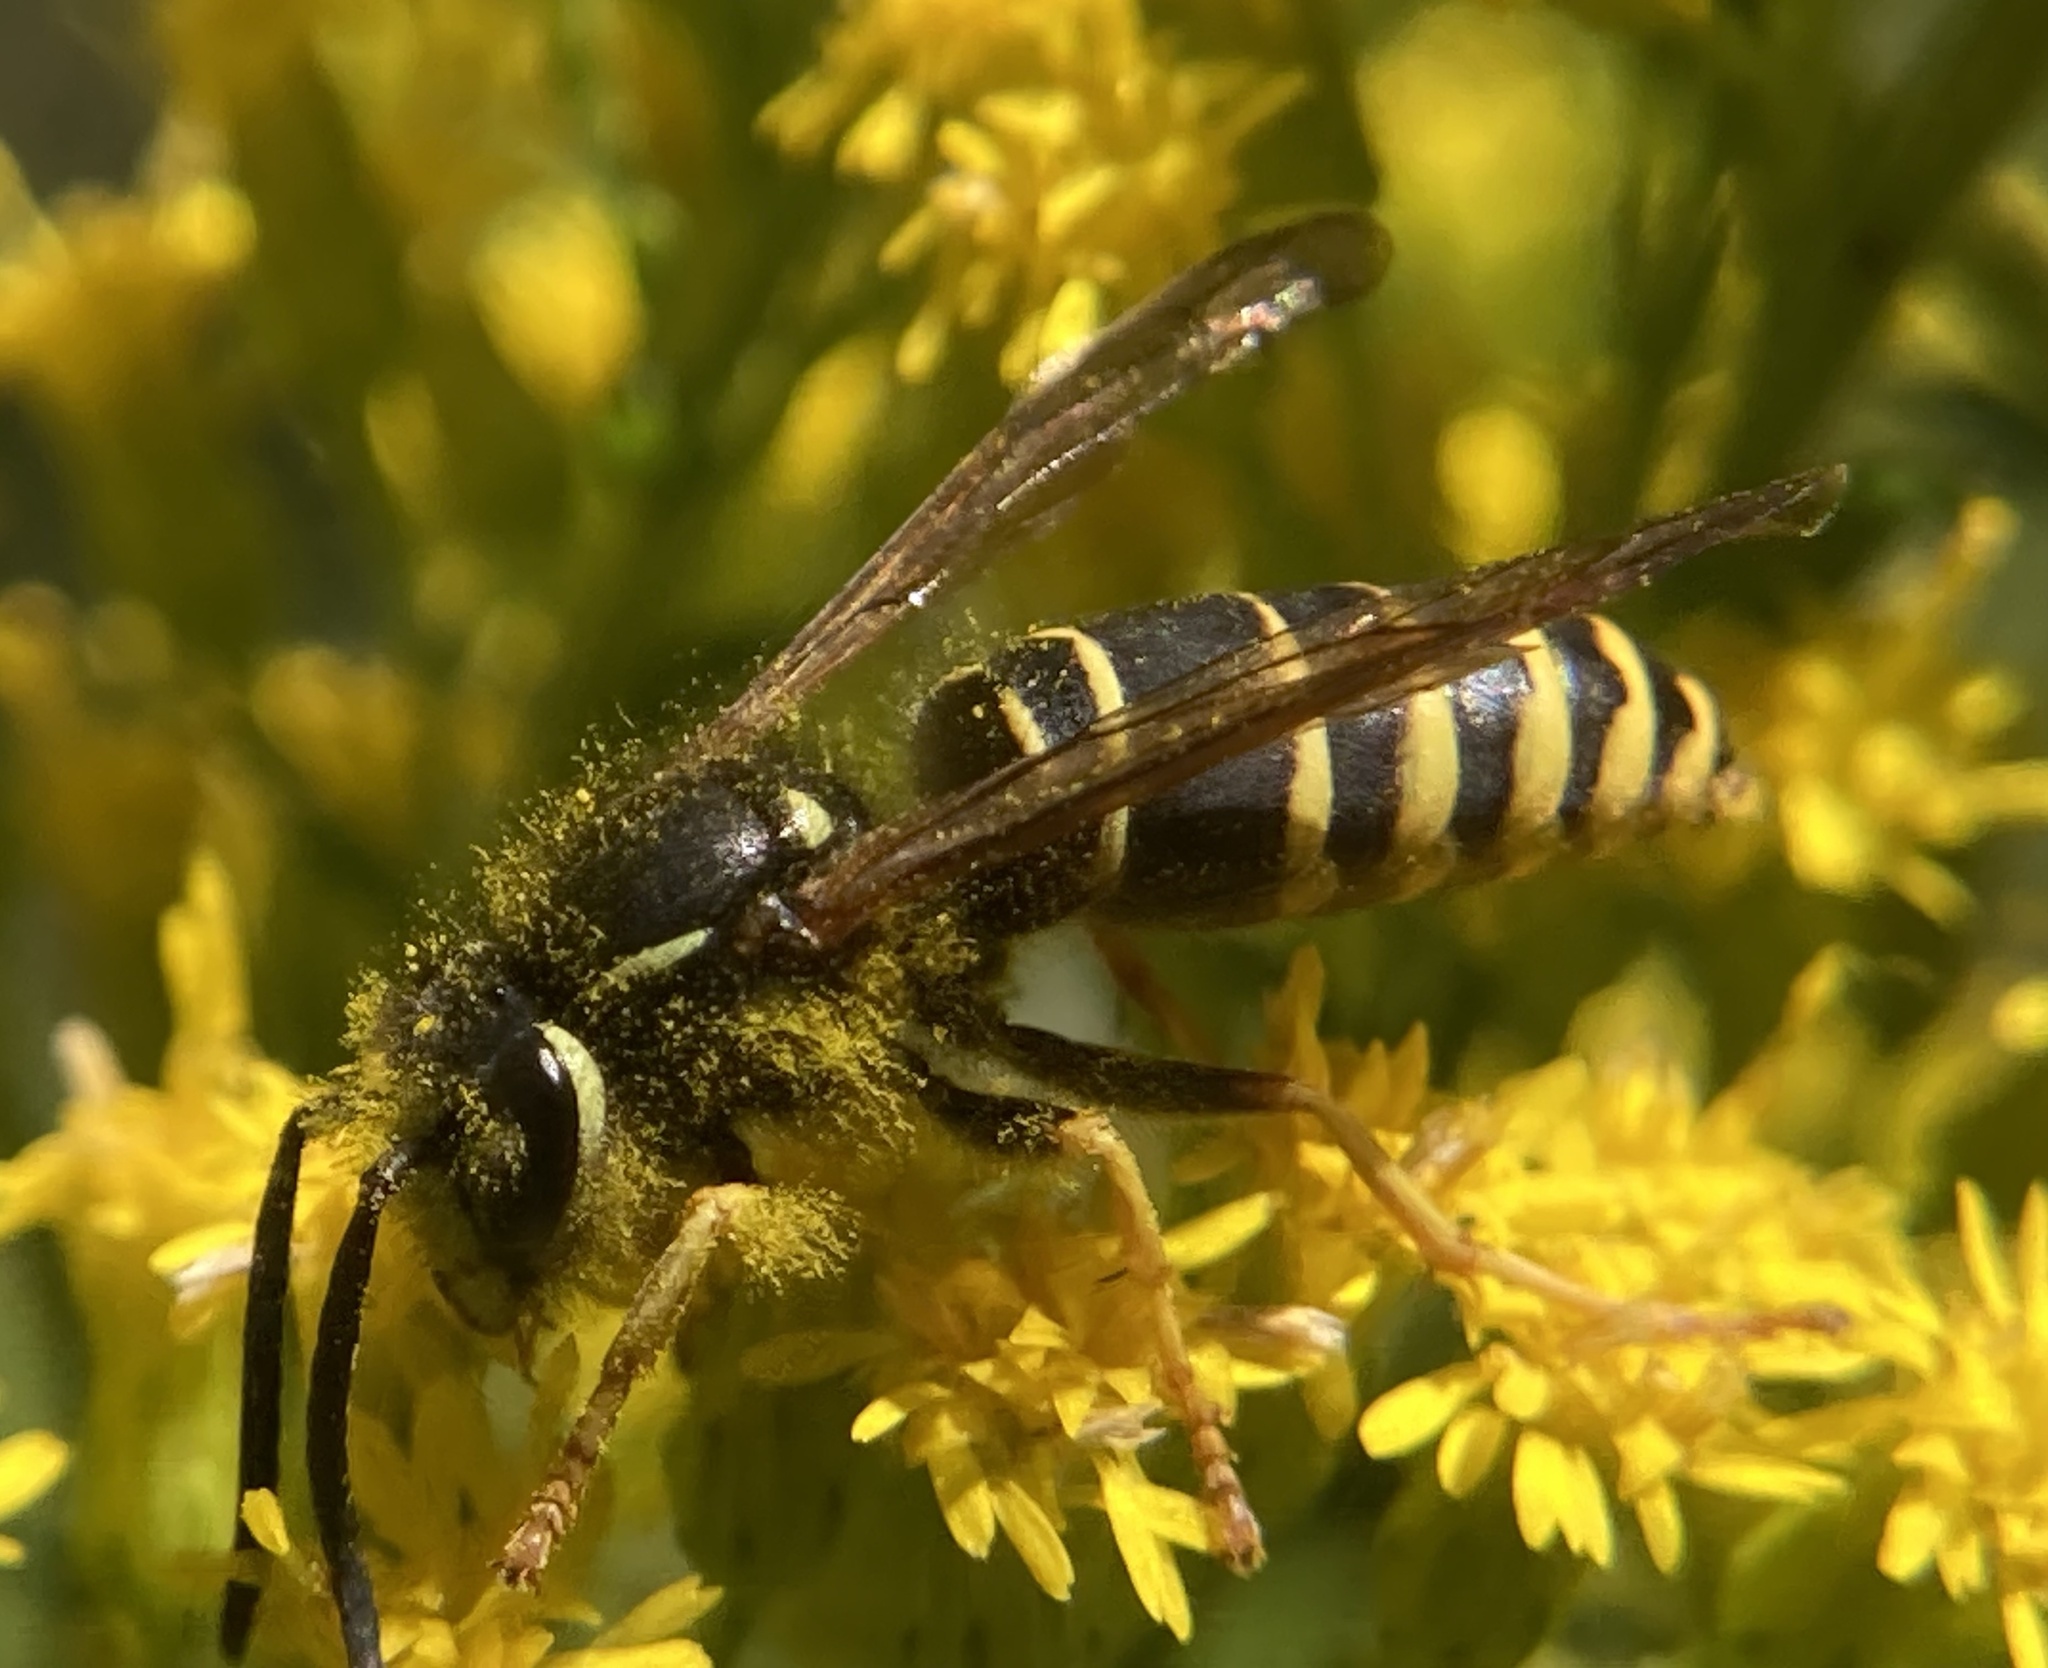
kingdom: Animalia
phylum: Arthropoda
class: Insecta
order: Hymenoptera
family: Vespidae
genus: Vespula
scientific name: Vespula vidua
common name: Widow yellowjacket
